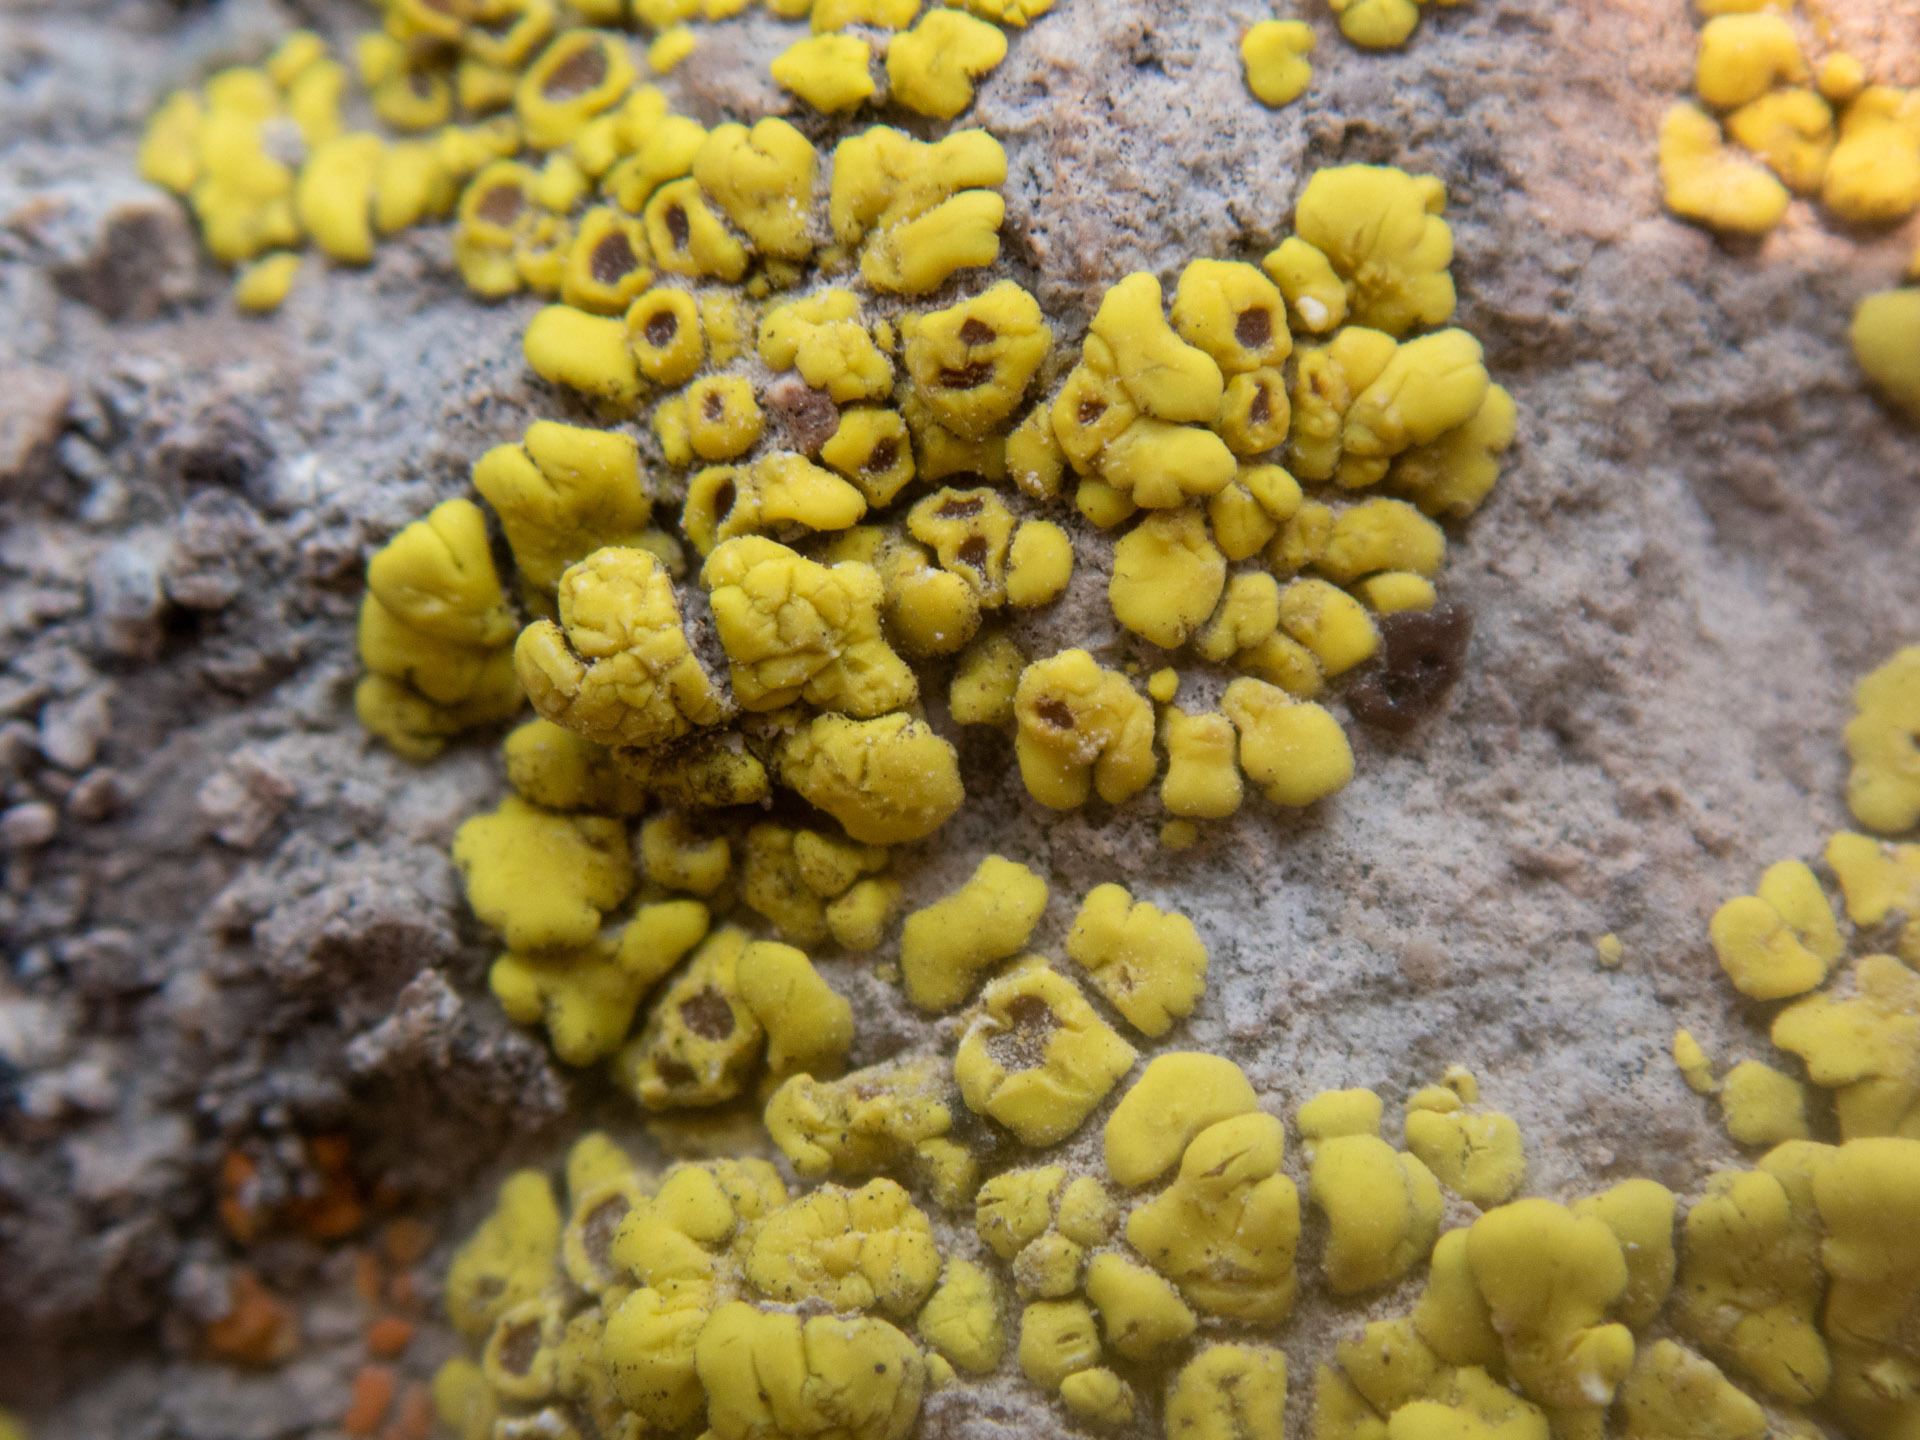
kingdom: Fungi
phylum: Ascomycota
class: Lecanoromycetes
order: Acarosporales
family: Acarosporaceae
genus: Acarospora
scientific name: Acarospora socialis
